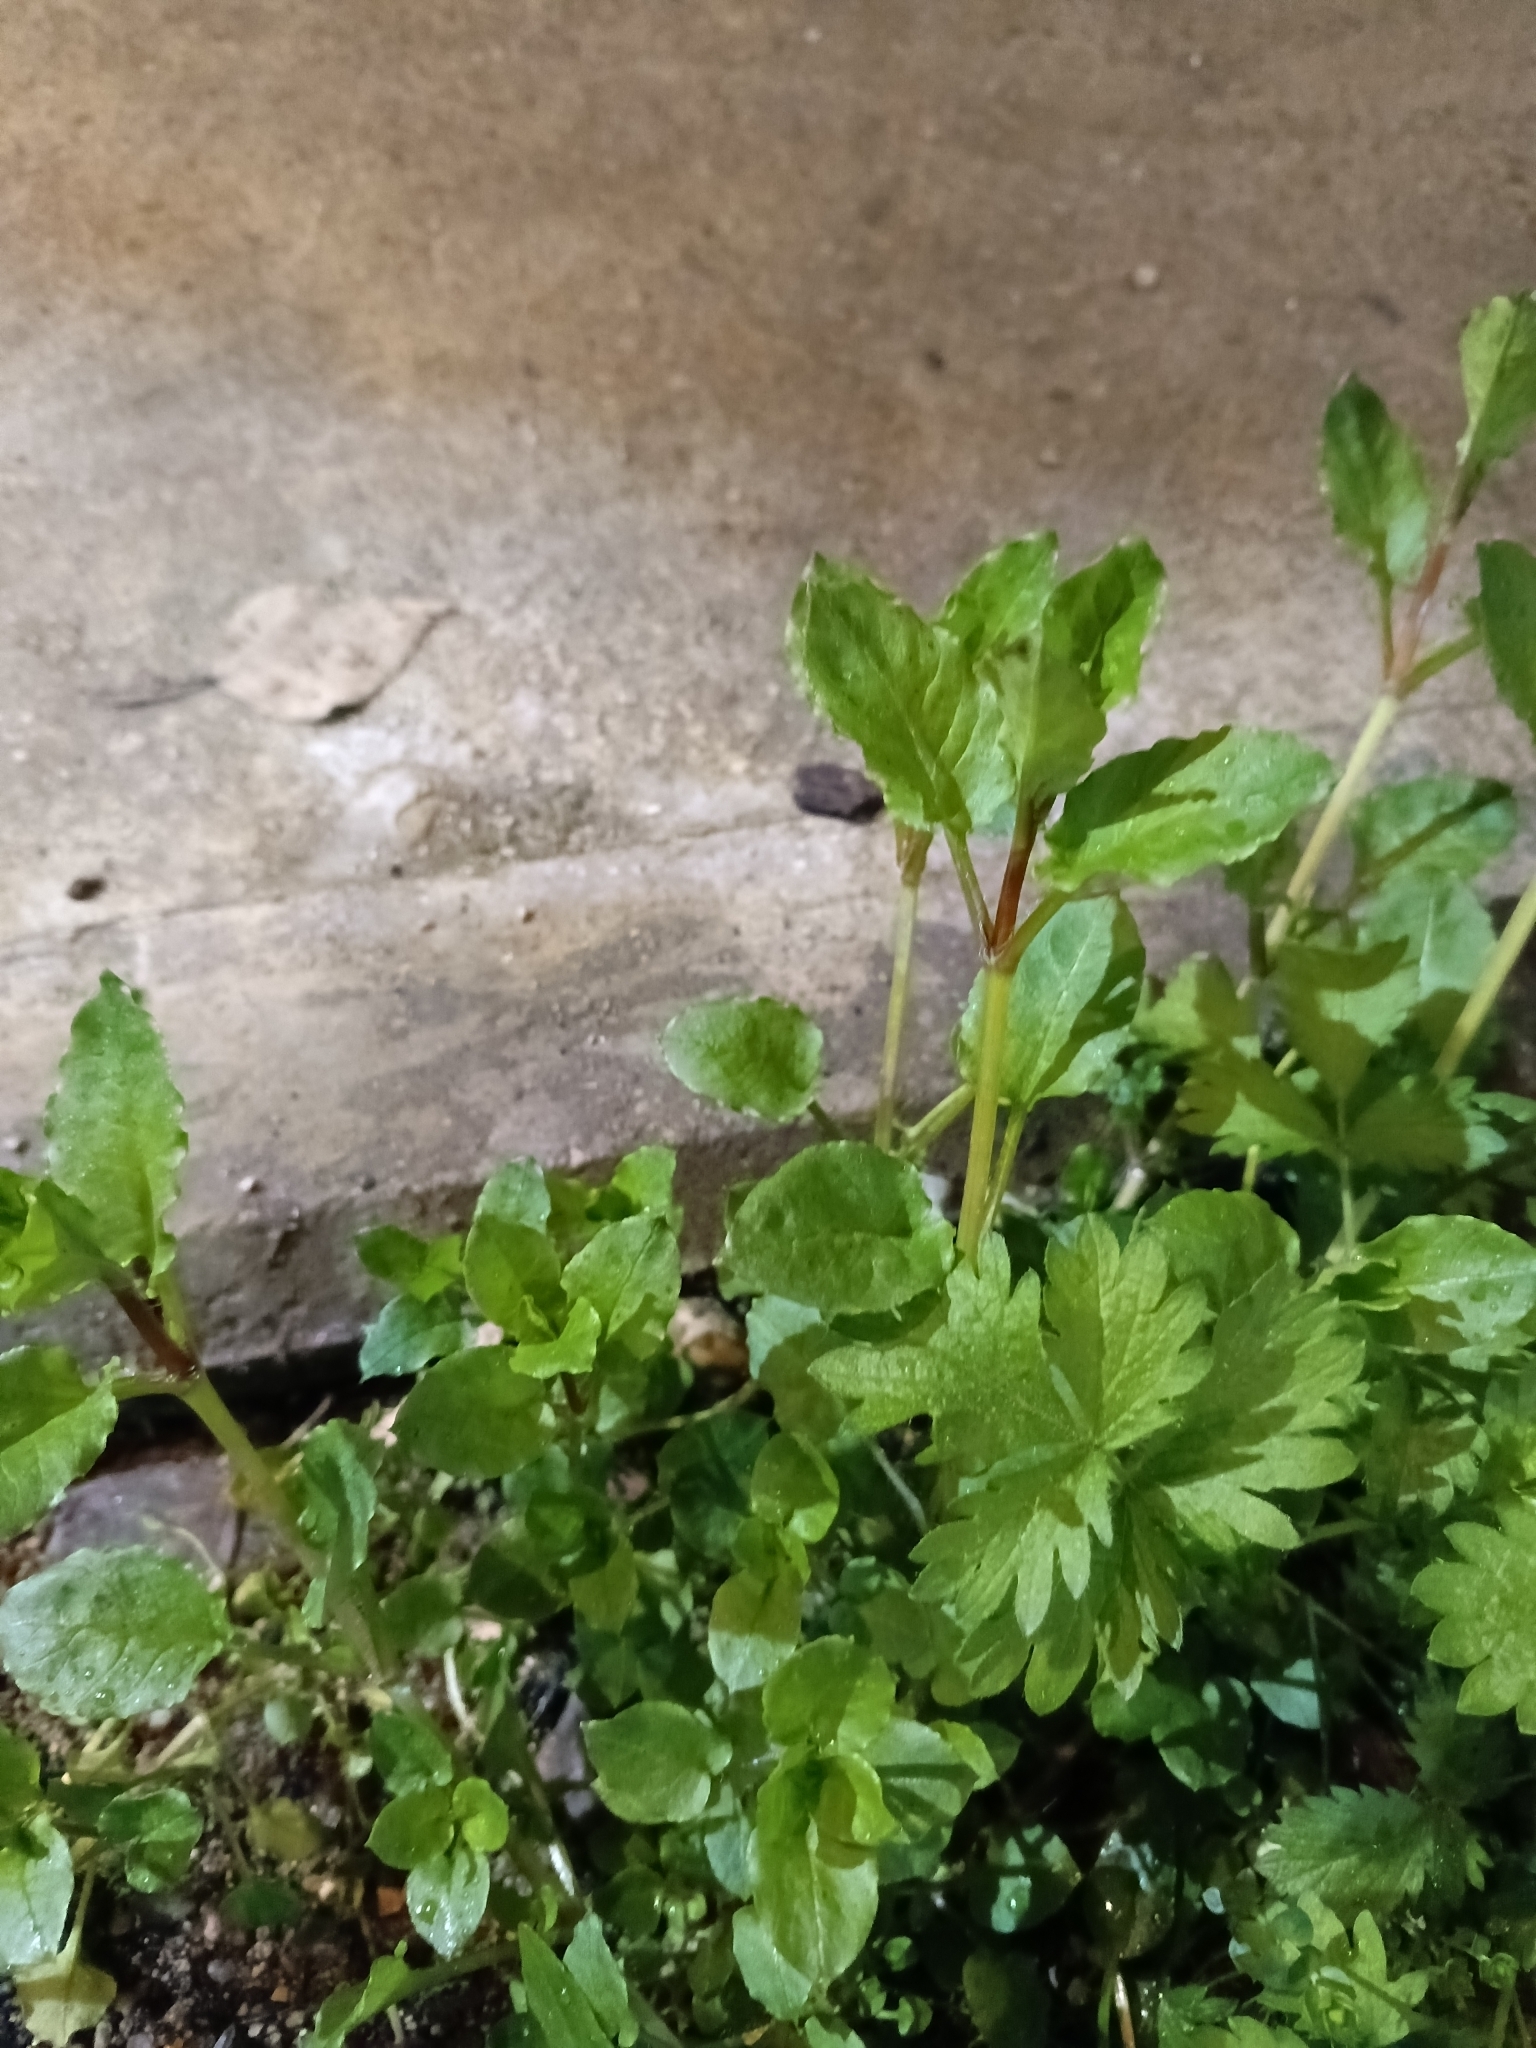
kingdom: Plantae
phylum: Tracheophyta
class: Magnoliopsida
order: Caryophyllales
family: Caryophyllaceae
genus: Stellaria
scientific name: Stellaria nemorum
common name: Wood stitchwort
